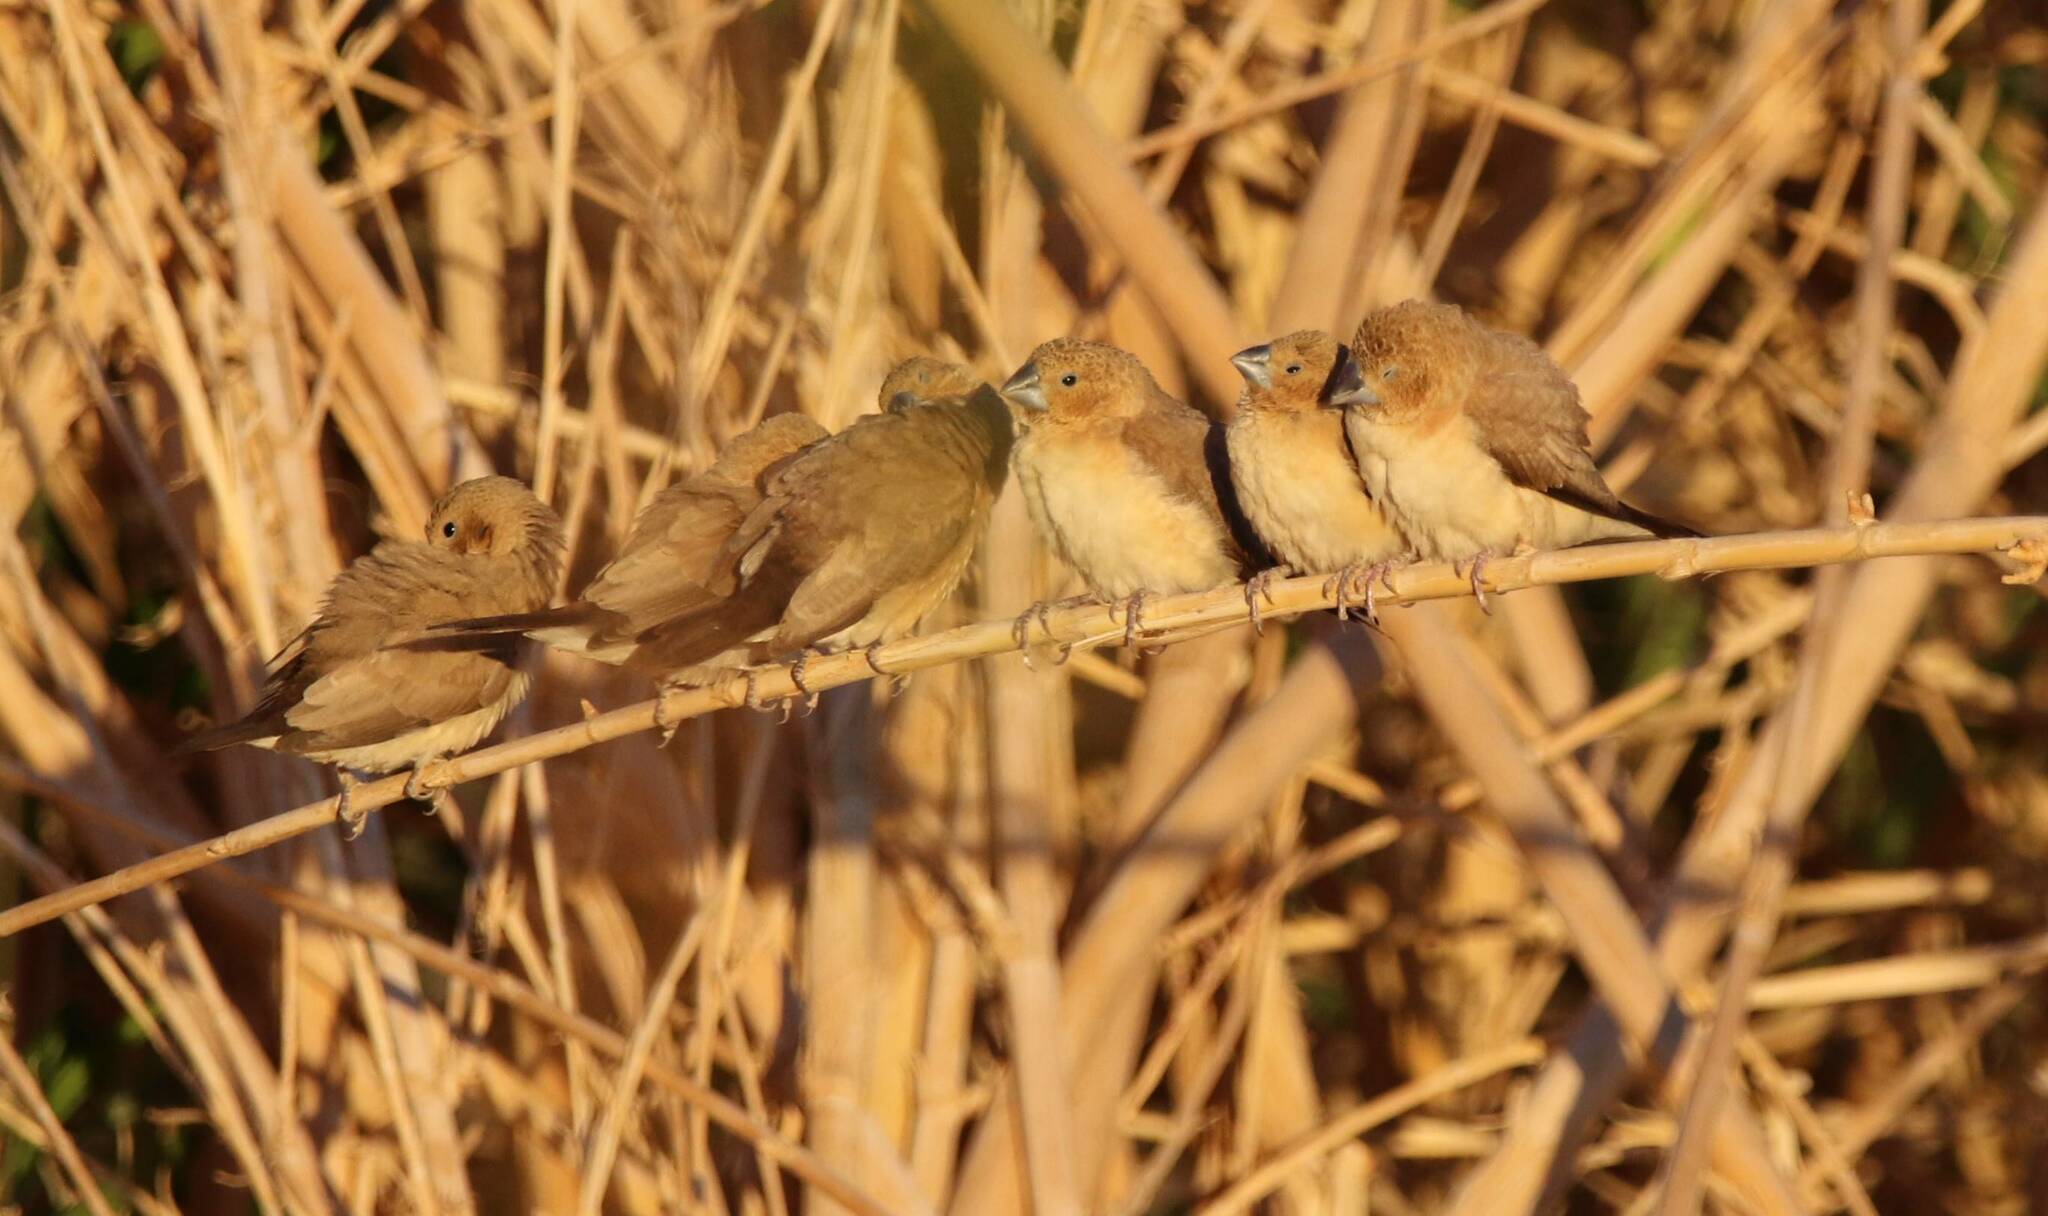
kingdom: Animalia
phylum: Chordata
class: Aves
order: Passeriformes
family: Estrildidae
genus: Euodice
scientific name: Euodice cantans
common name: African silverbill
